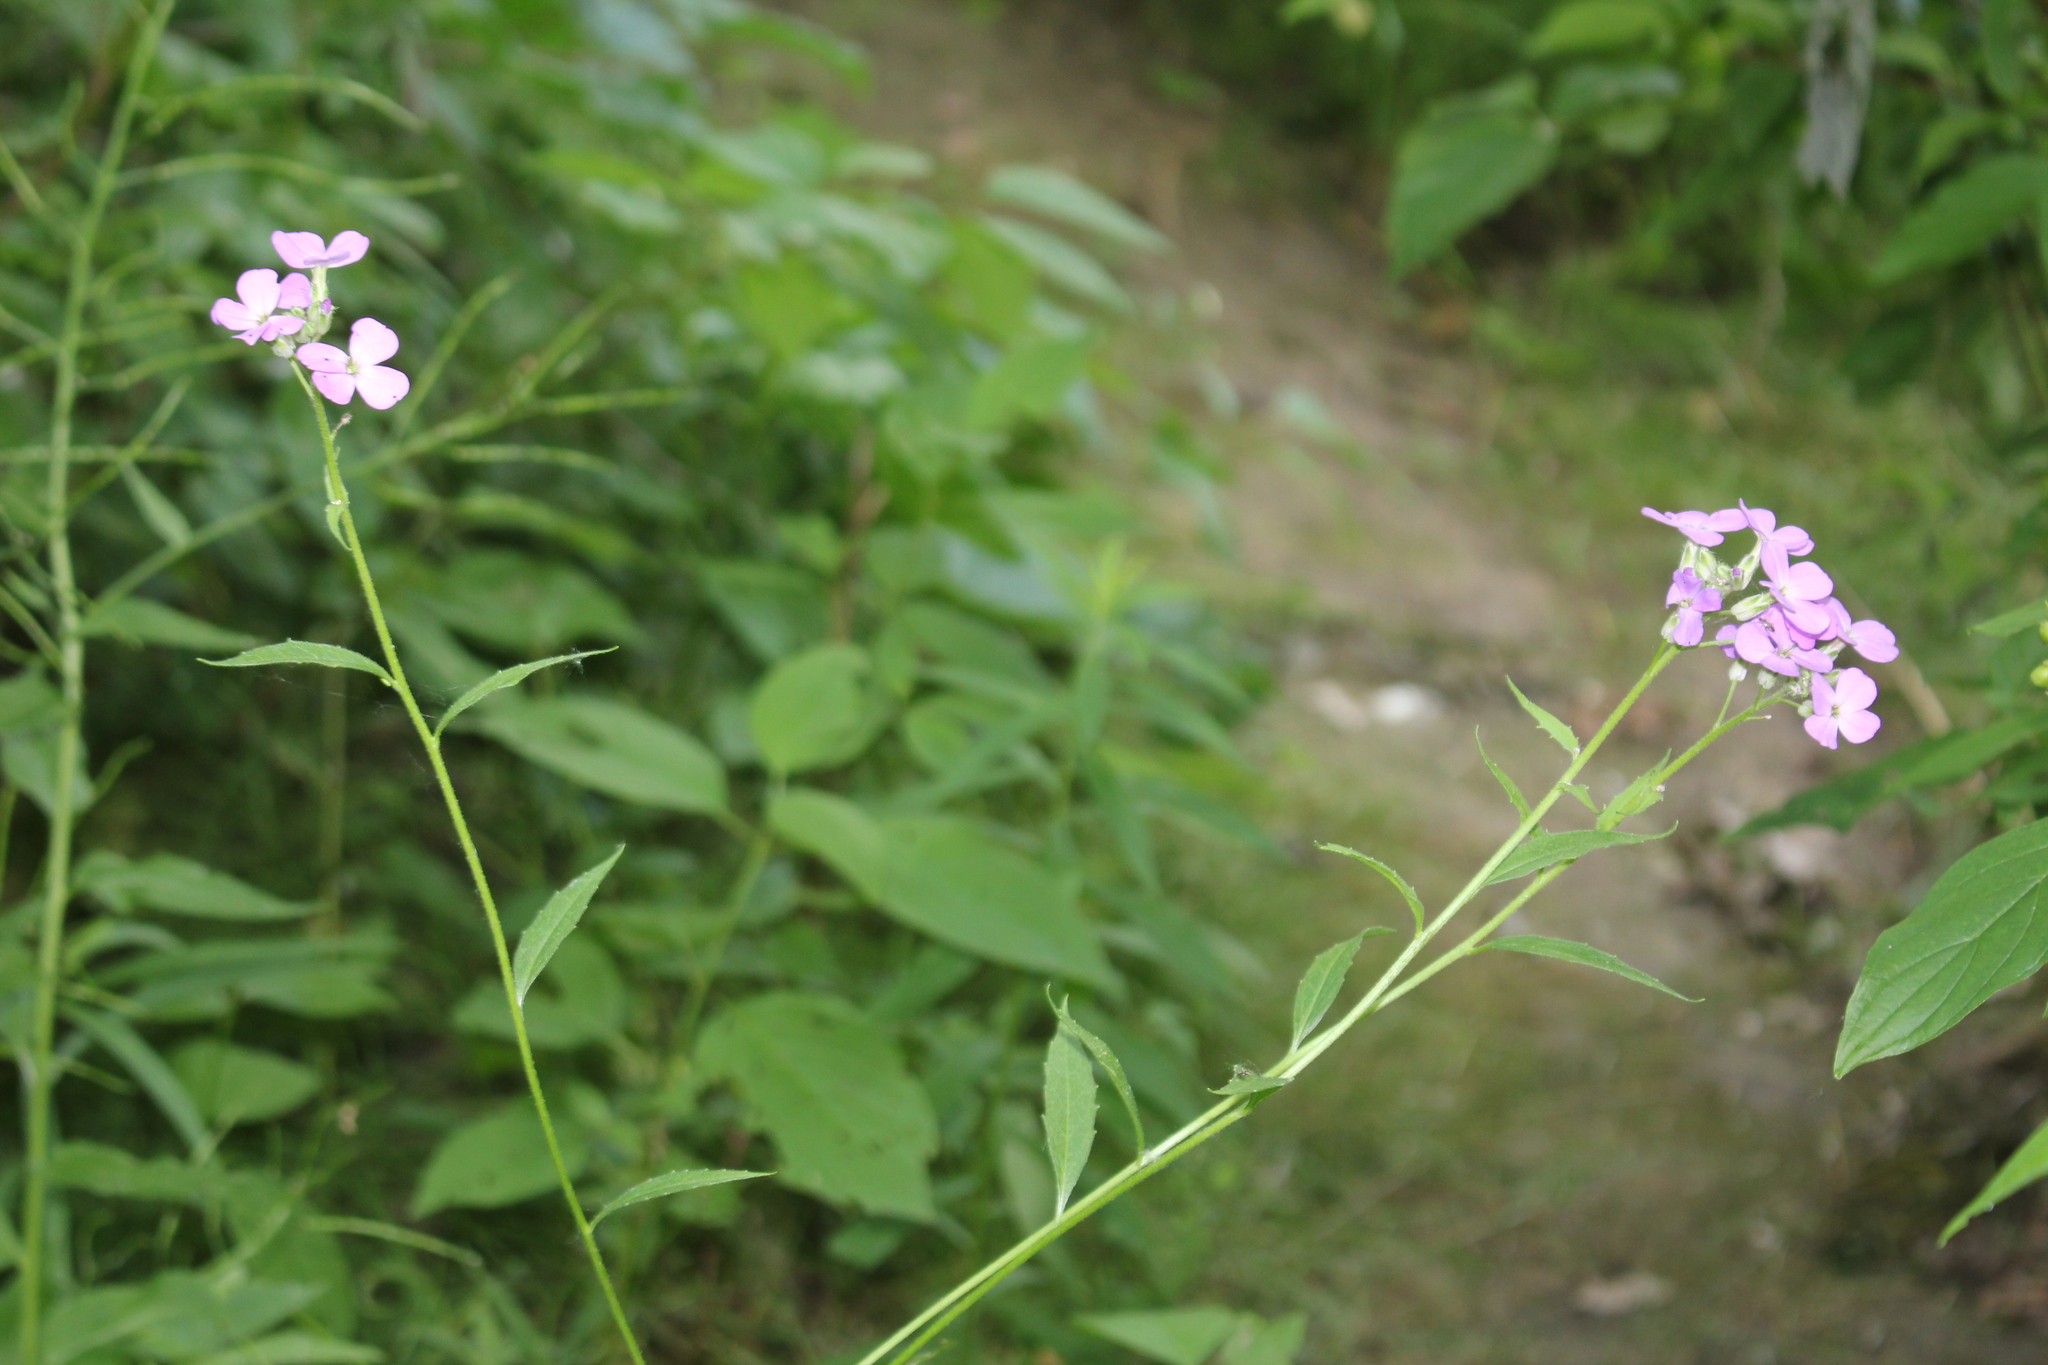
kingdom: Plantae
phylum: Tracheophyta
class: Magnoliopsida
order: Brassicales
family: Brassicaceae
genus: Hesperis
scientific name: Hesperis matronalis
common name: Dame's-violet
